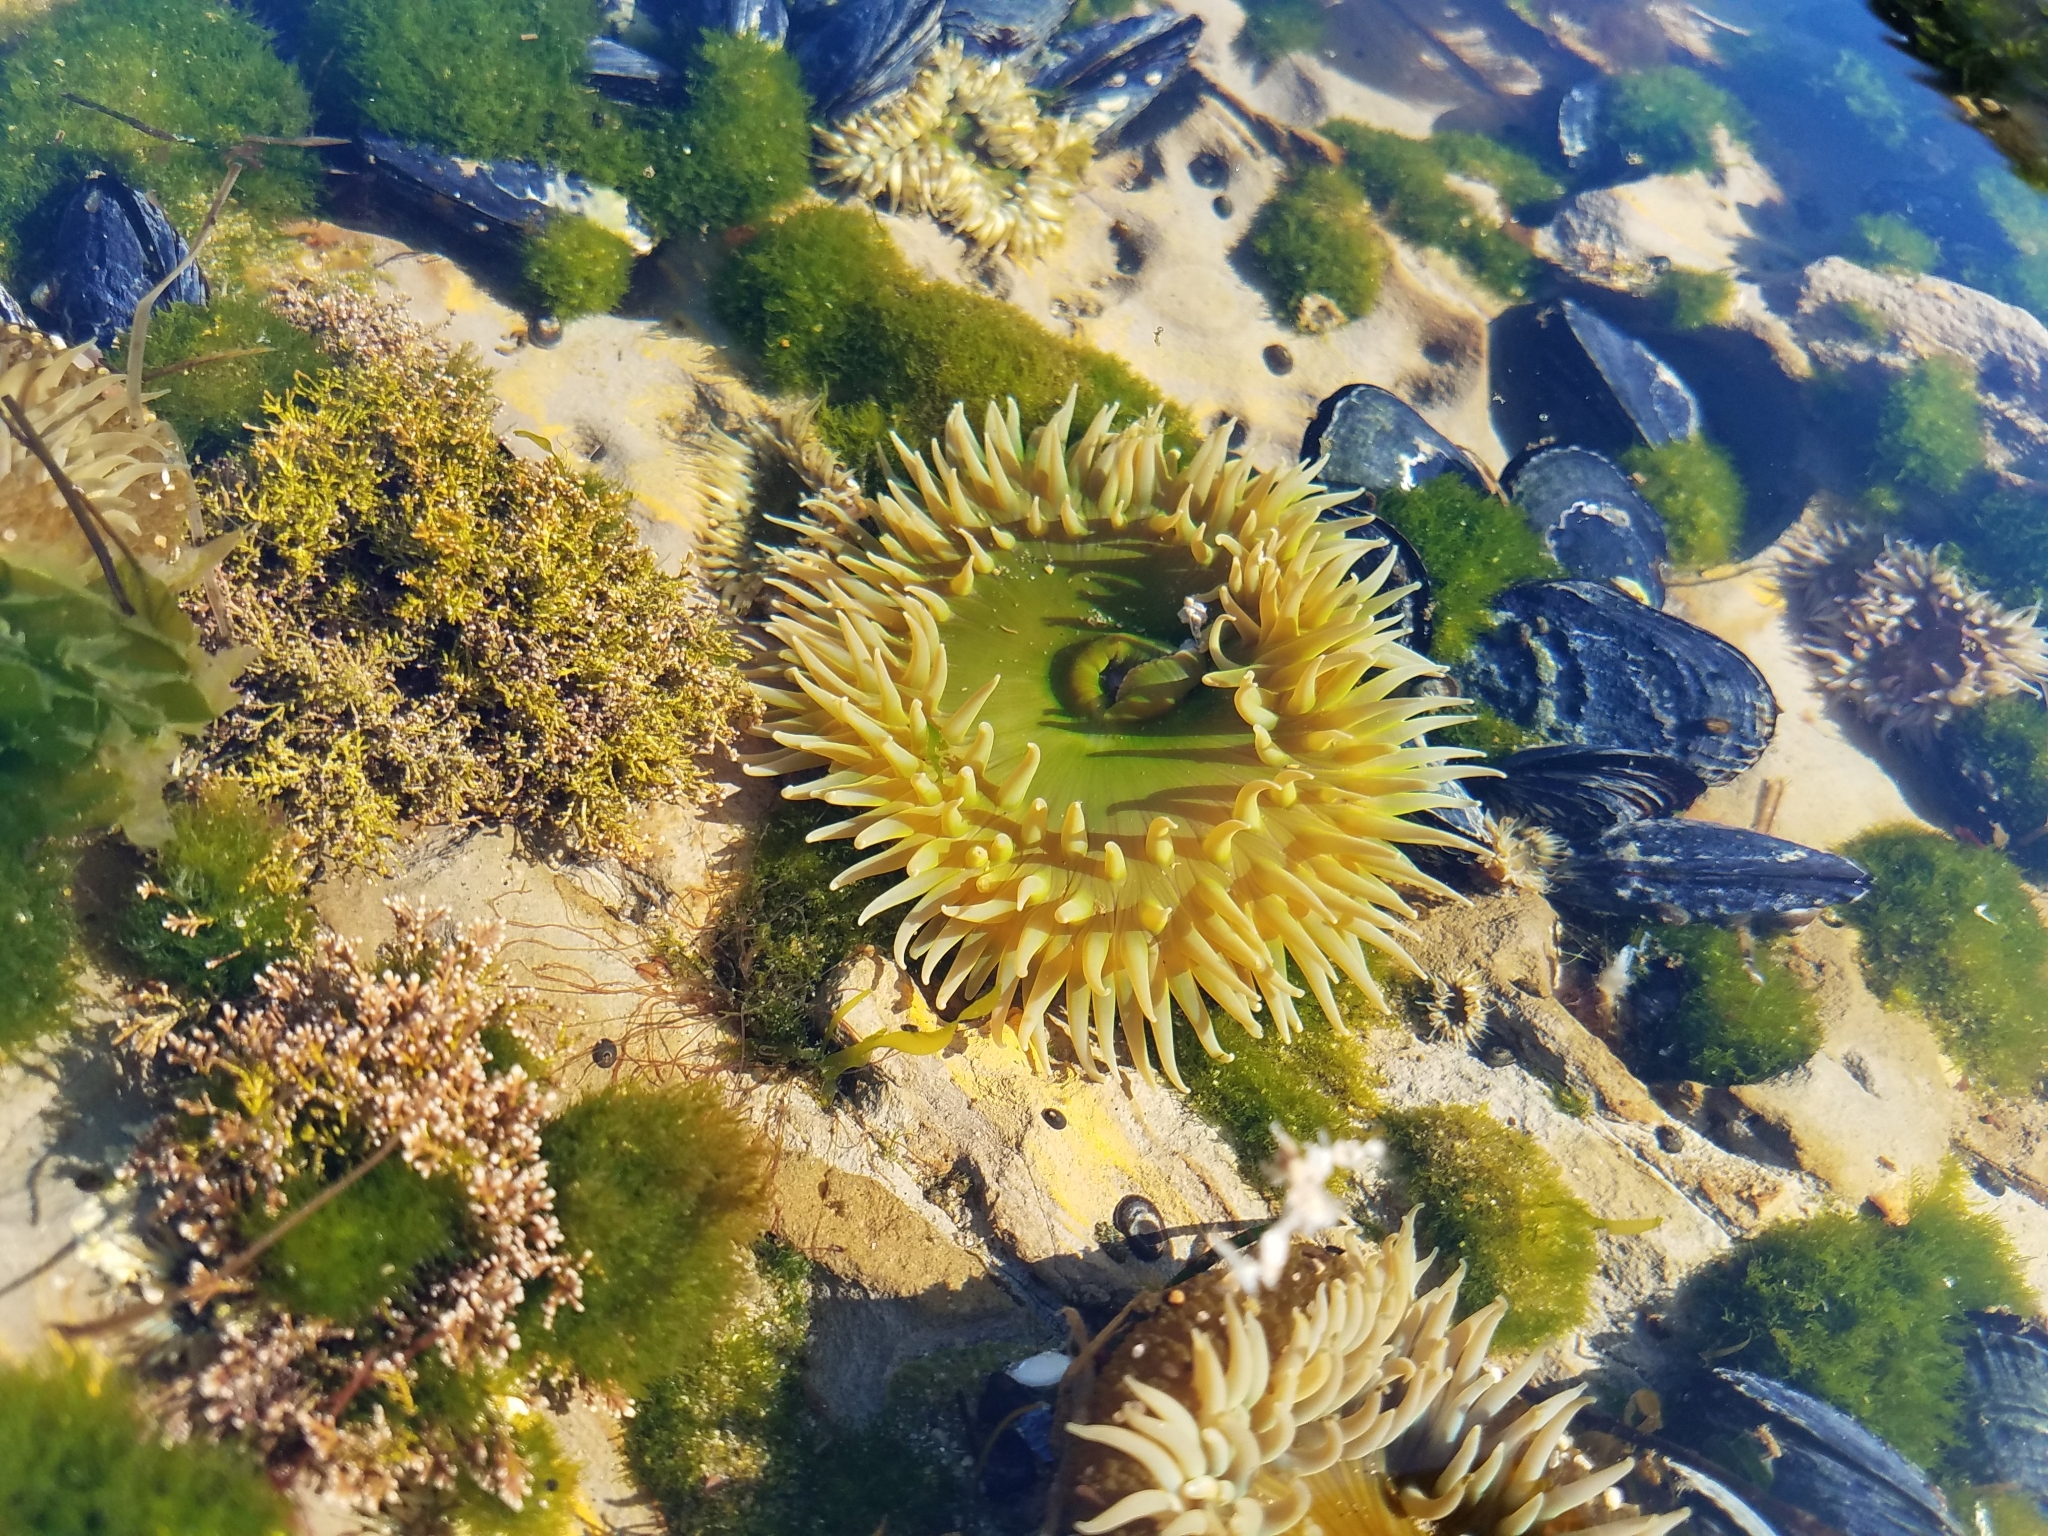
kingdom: Animalia
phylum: Cnidaria
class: Anthozoa
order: Actiniaria
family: Actiniidae
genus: Anthopleura
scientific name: Anthopleura xanthogrammica
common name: Giant green anemone
